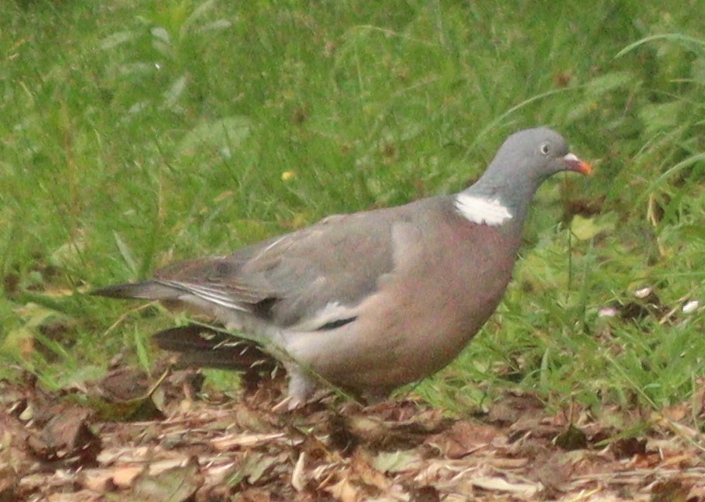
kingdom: Animalia
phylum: Chordata
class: Aves
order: Columbiformes
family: Columbidae
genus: Columba
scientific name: Columba palumbus
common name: Common wood pigeon
